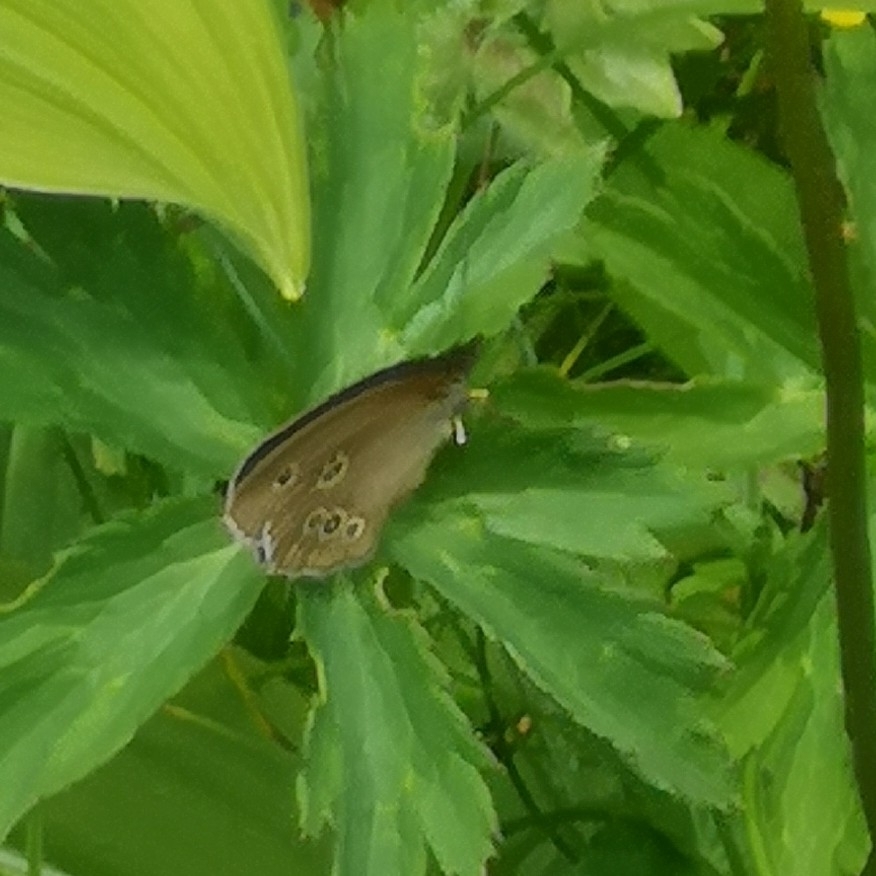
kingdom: Animalia
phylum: Arthropoda
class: Insecta
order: Lepidoptera
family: Nymphalidae
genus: Aphantopus
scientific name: Aphantopus hyperantus
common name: Ringlet
